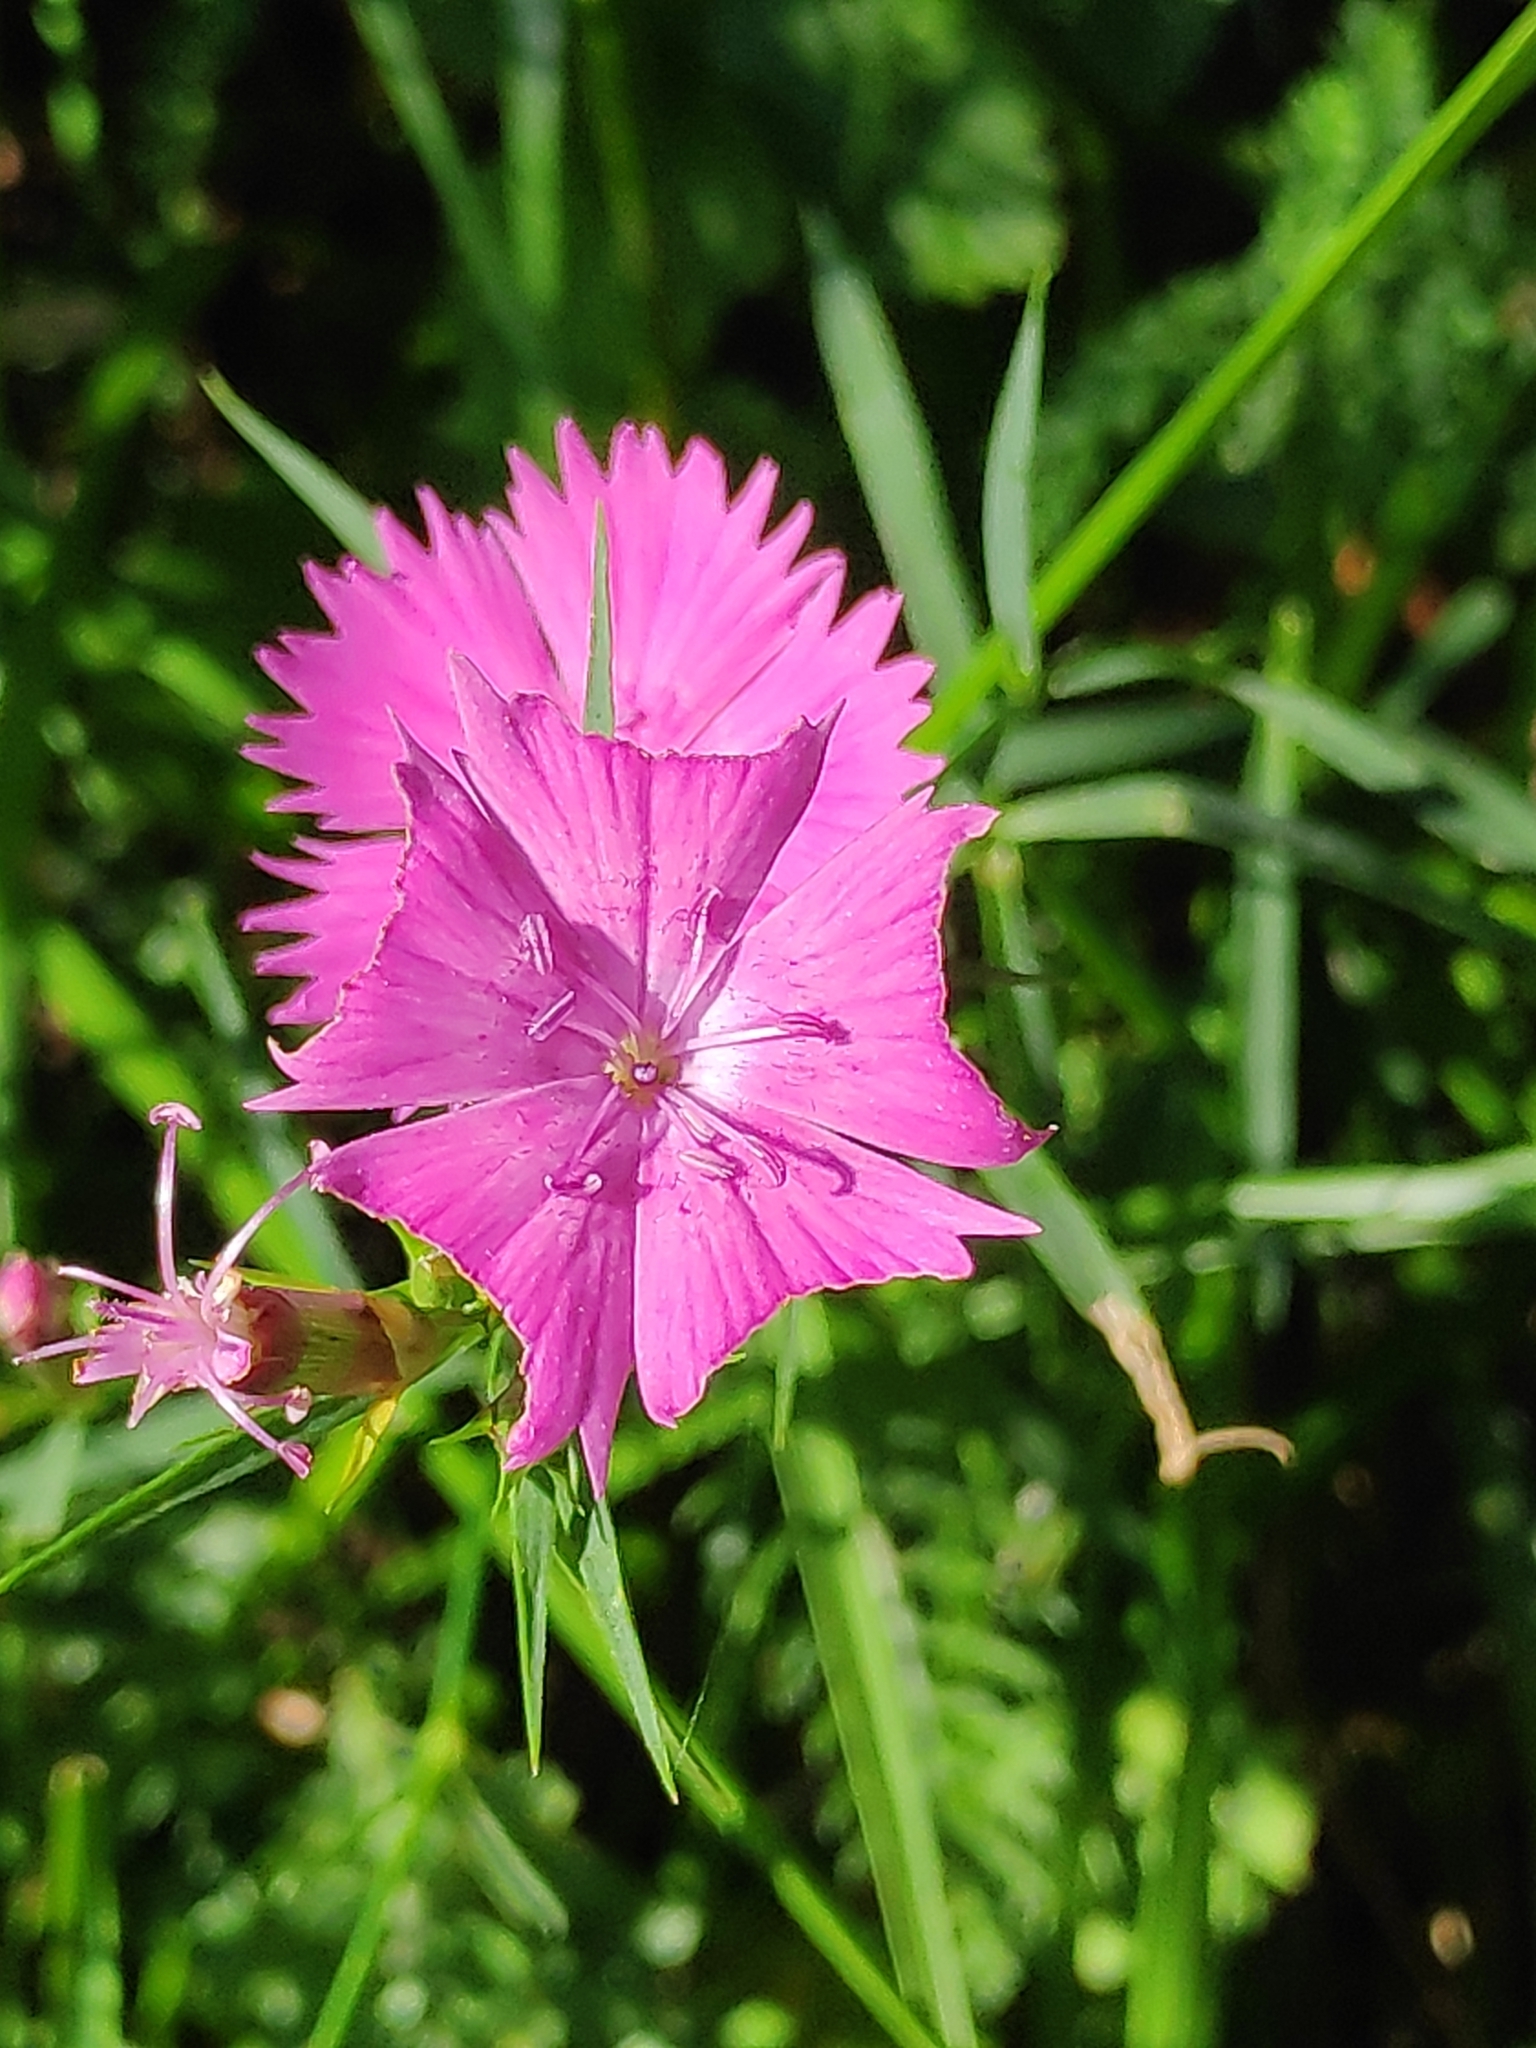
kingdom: Plantae
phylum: Tracheophyta
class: Magnoliopsida
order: Caryophyllales
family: Caryophyllaceae
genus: Dianthus
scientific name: Dianthus seguieri
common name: Ragged pink
